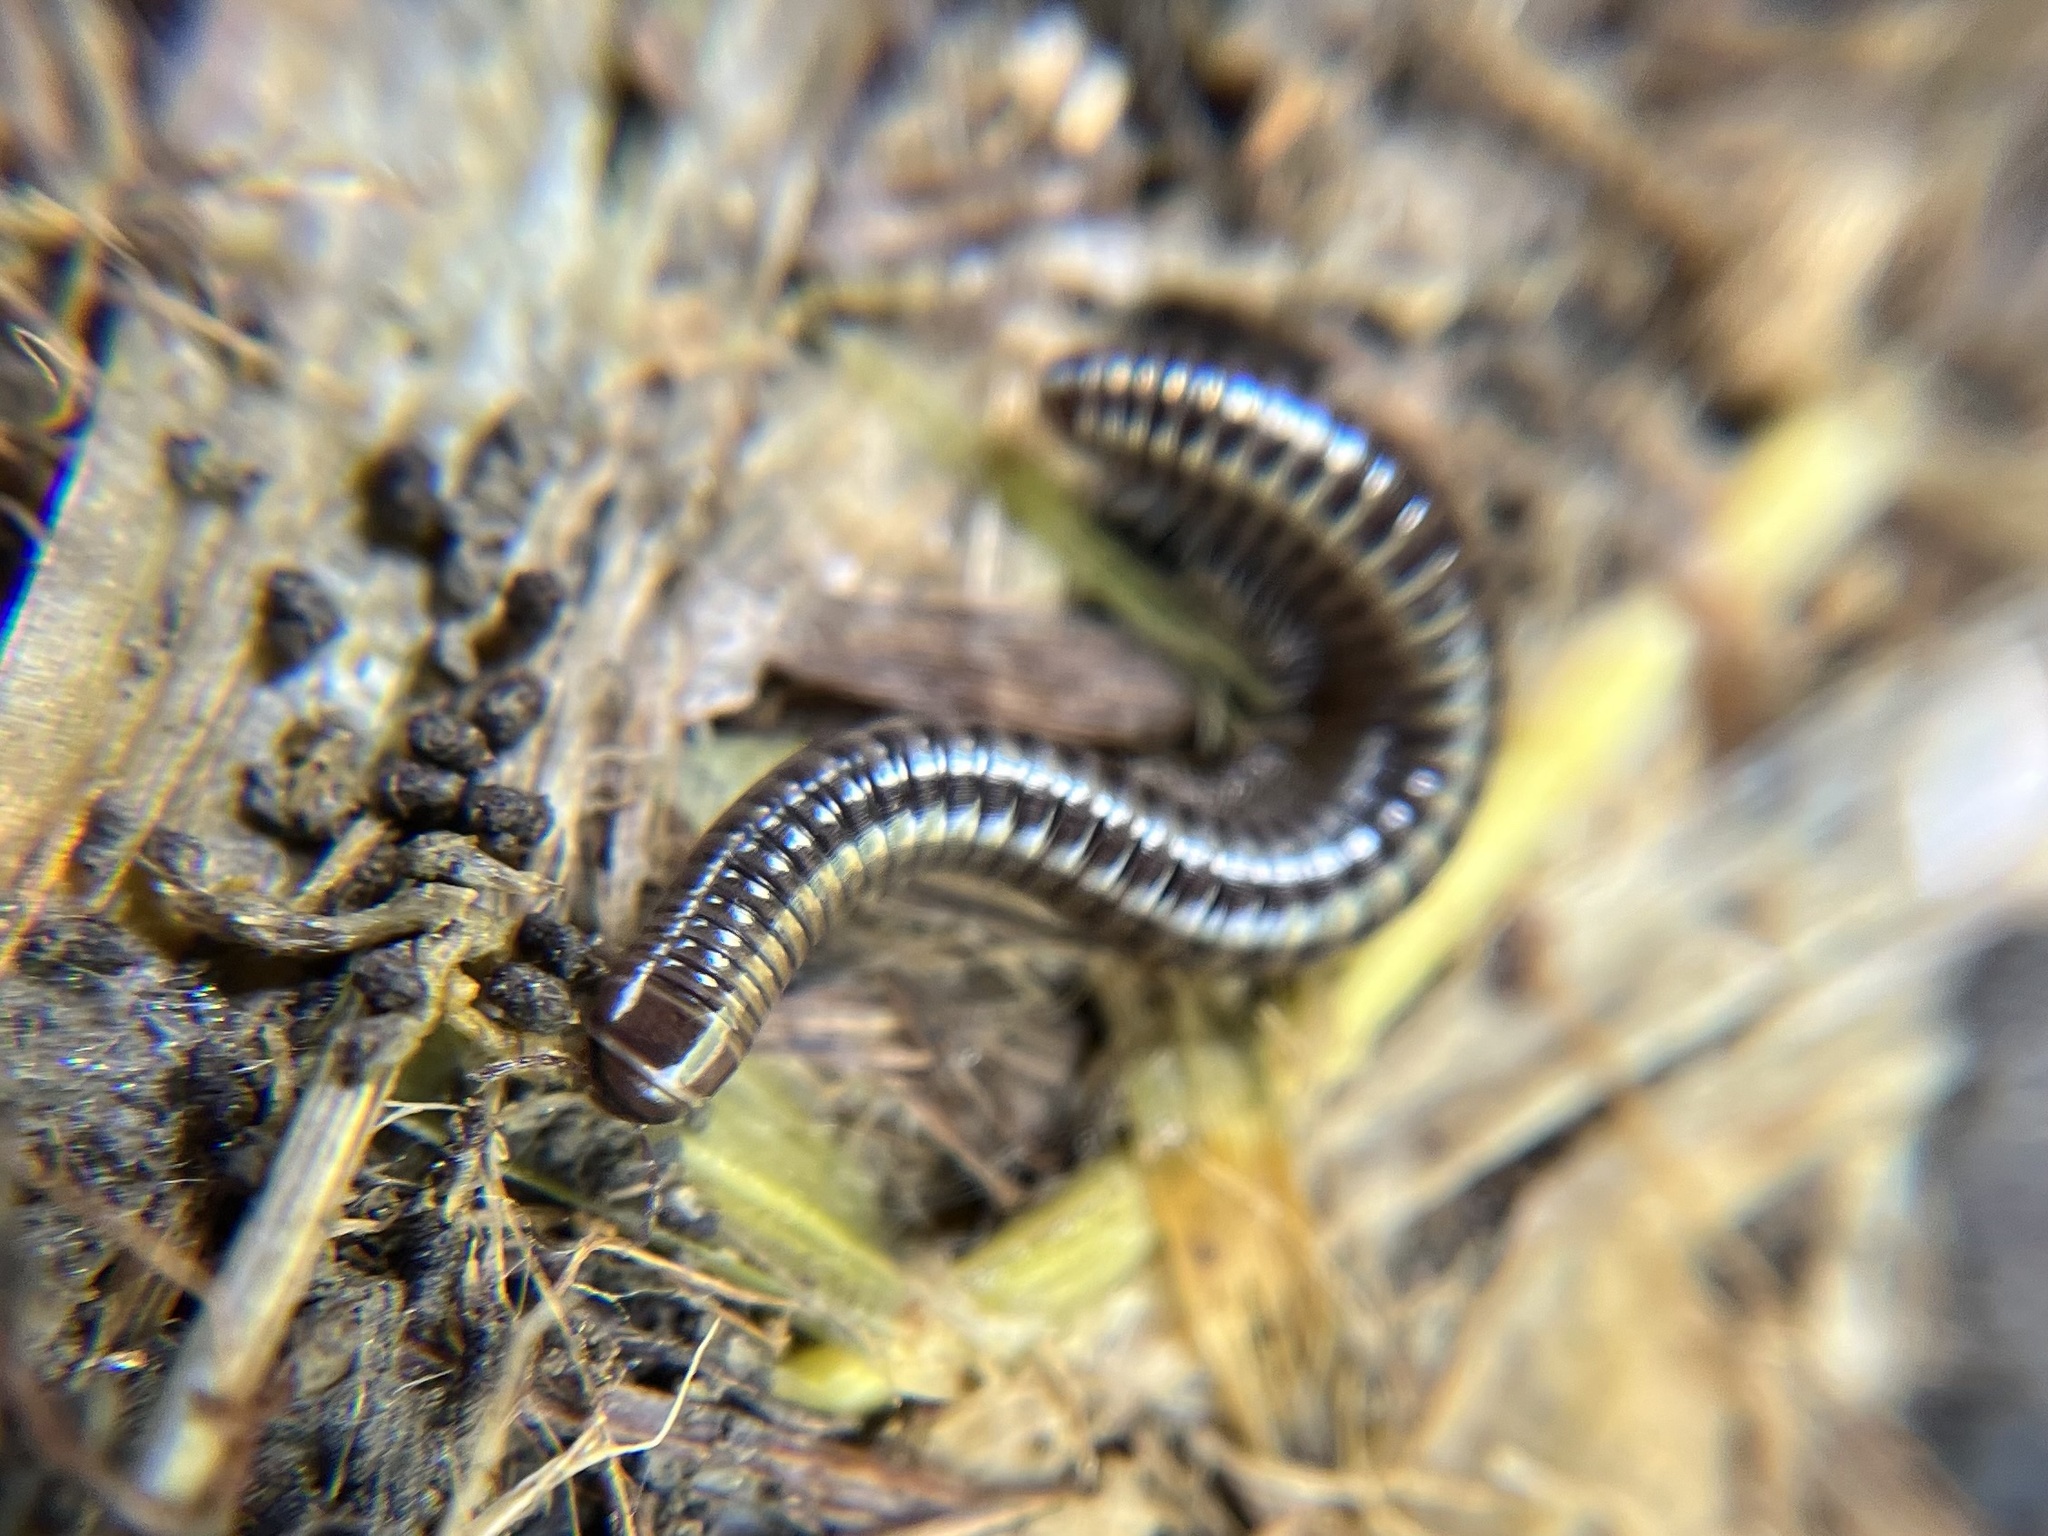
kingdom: Animalia
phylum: Arthropoda
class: Diplopoda
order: Julida
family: Julidae
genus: Cylindroiulus
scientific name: Cylindroiulus caeruleocinctus
